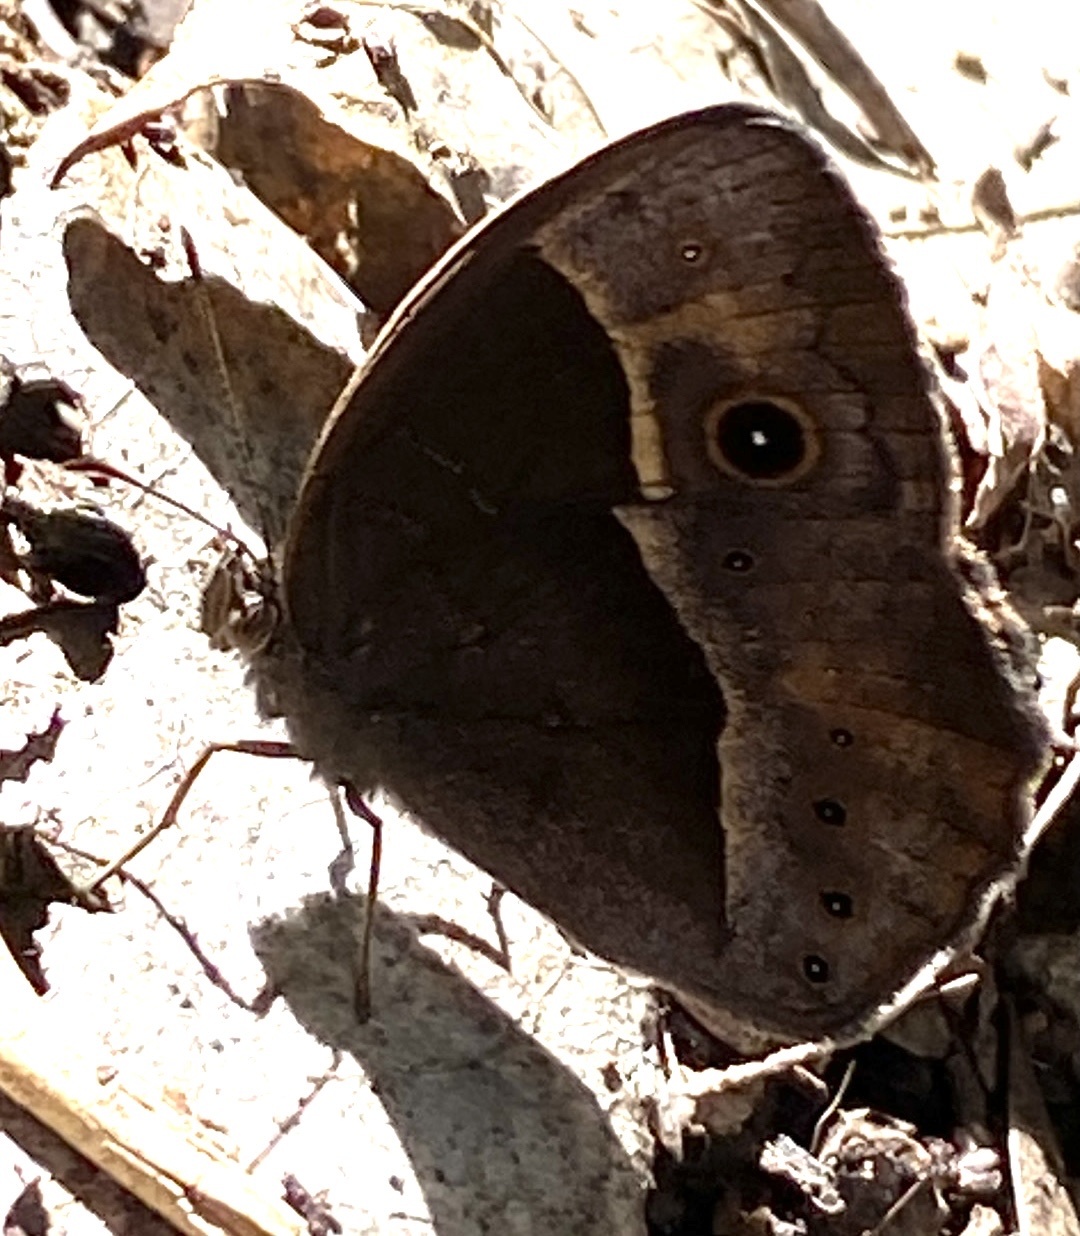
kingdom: Animalia
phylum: Arthropoda
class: Insecta
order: Lepidoptera
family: Nymphalidae
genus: Mycalesis
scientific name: Mycalesis rhacotis
